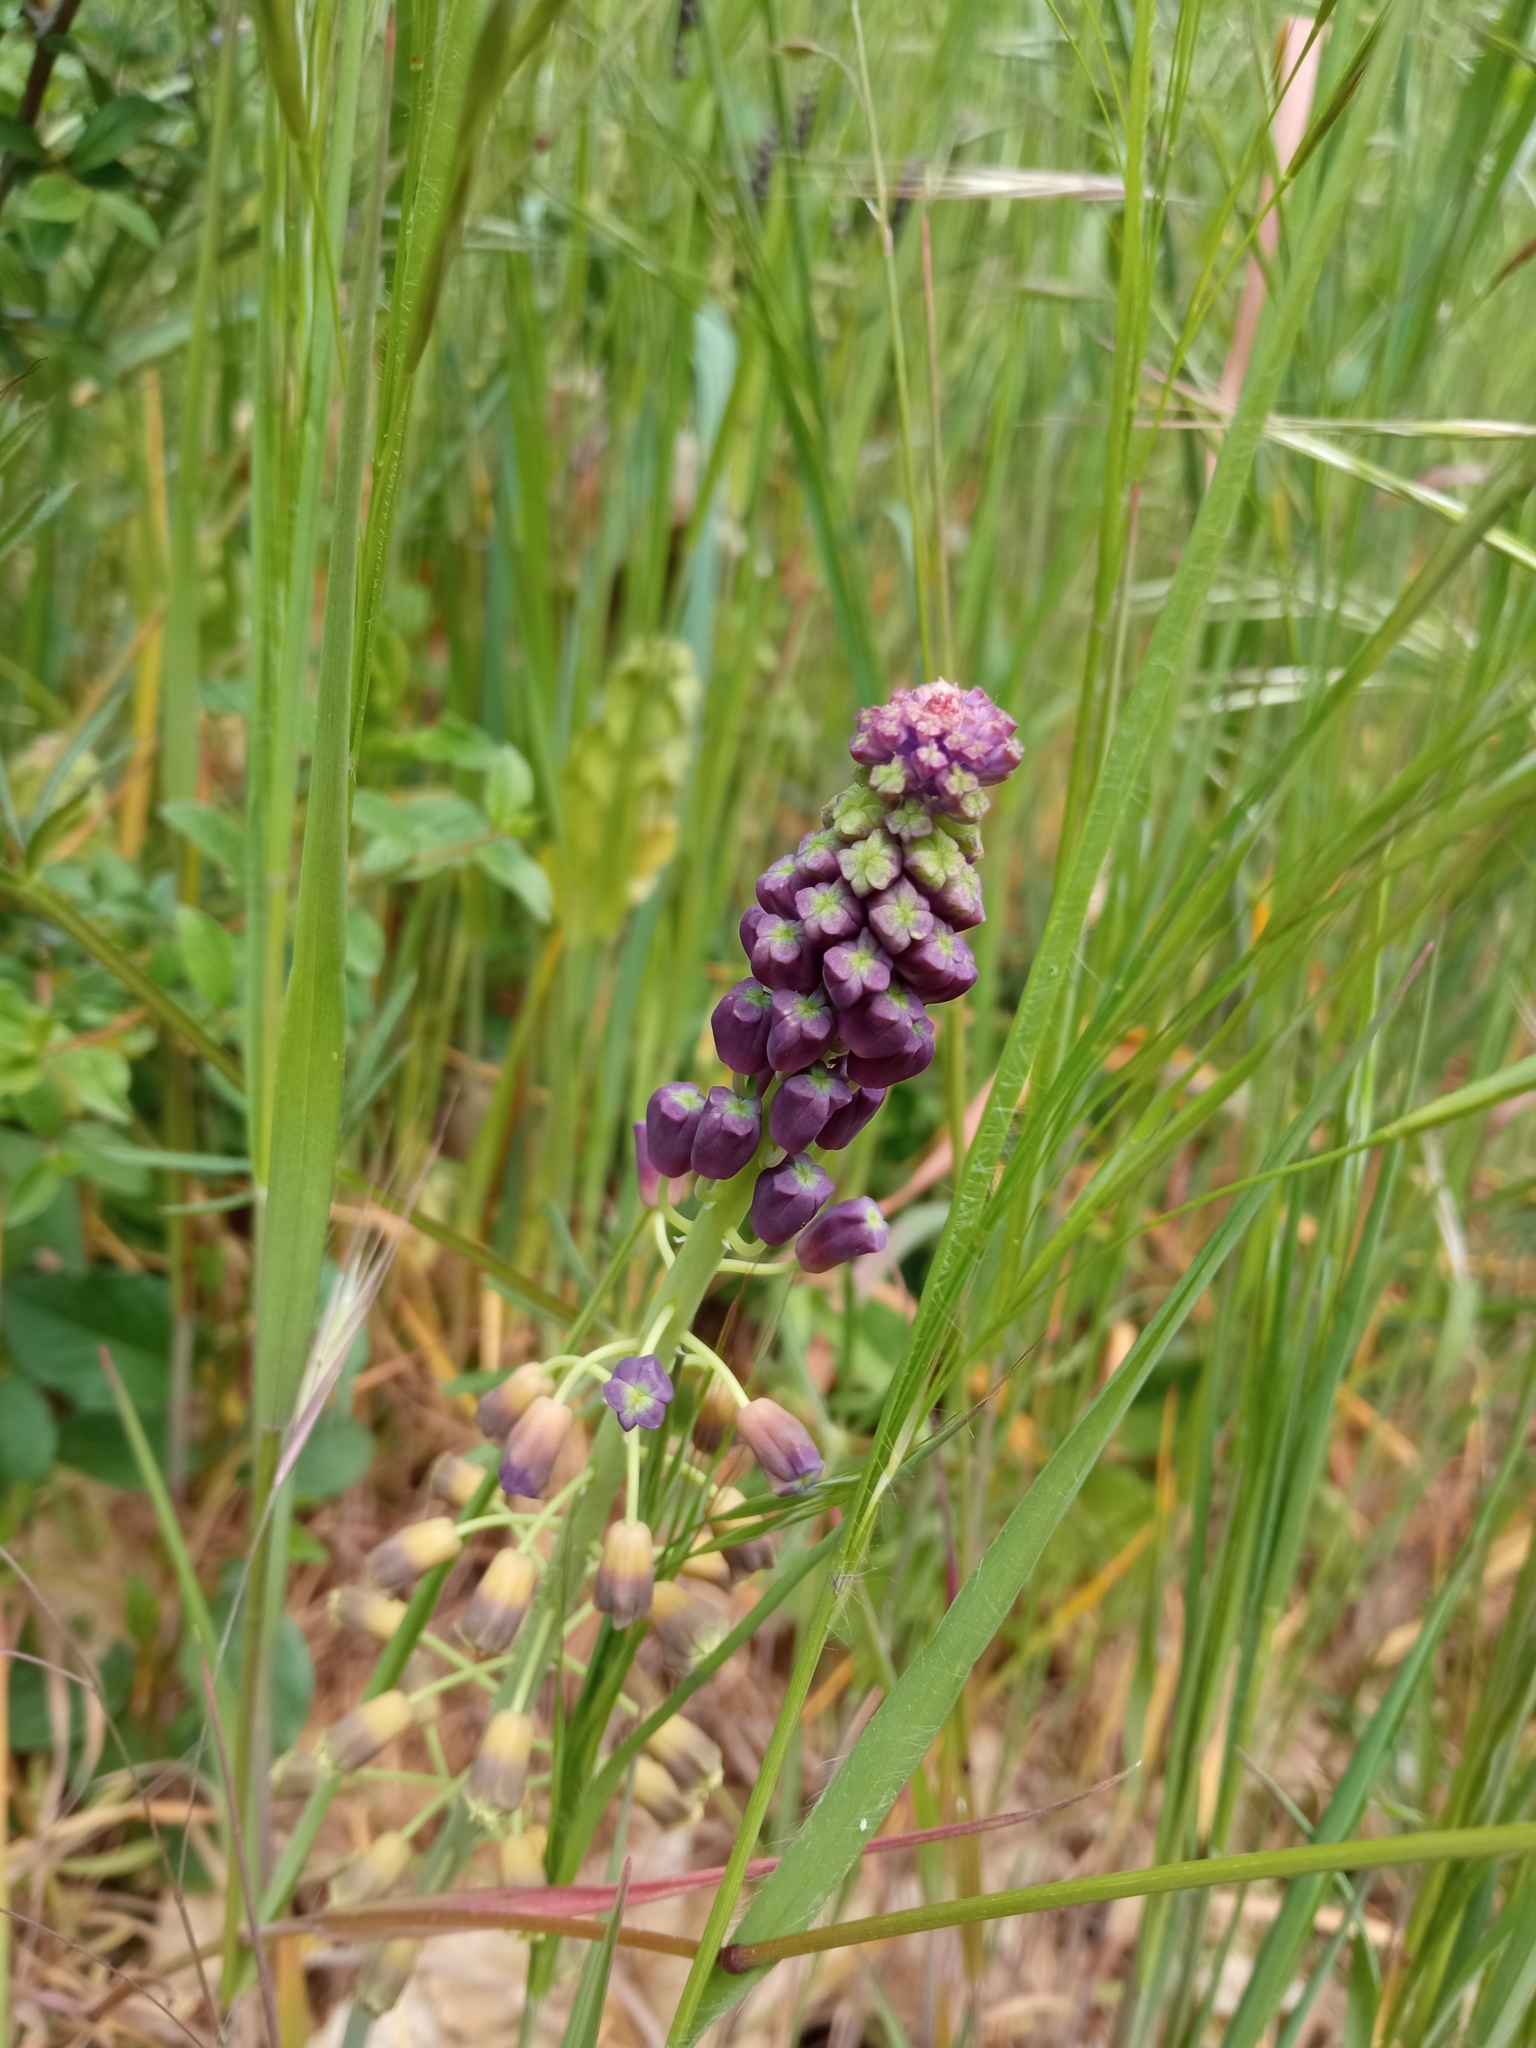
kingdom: Plantae
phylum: Tracheophyta
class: Liliopsida
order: Asparagales
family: Asparagaceae
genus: Muscari
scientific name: Muscari comosum
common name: Tassel hyacinth
